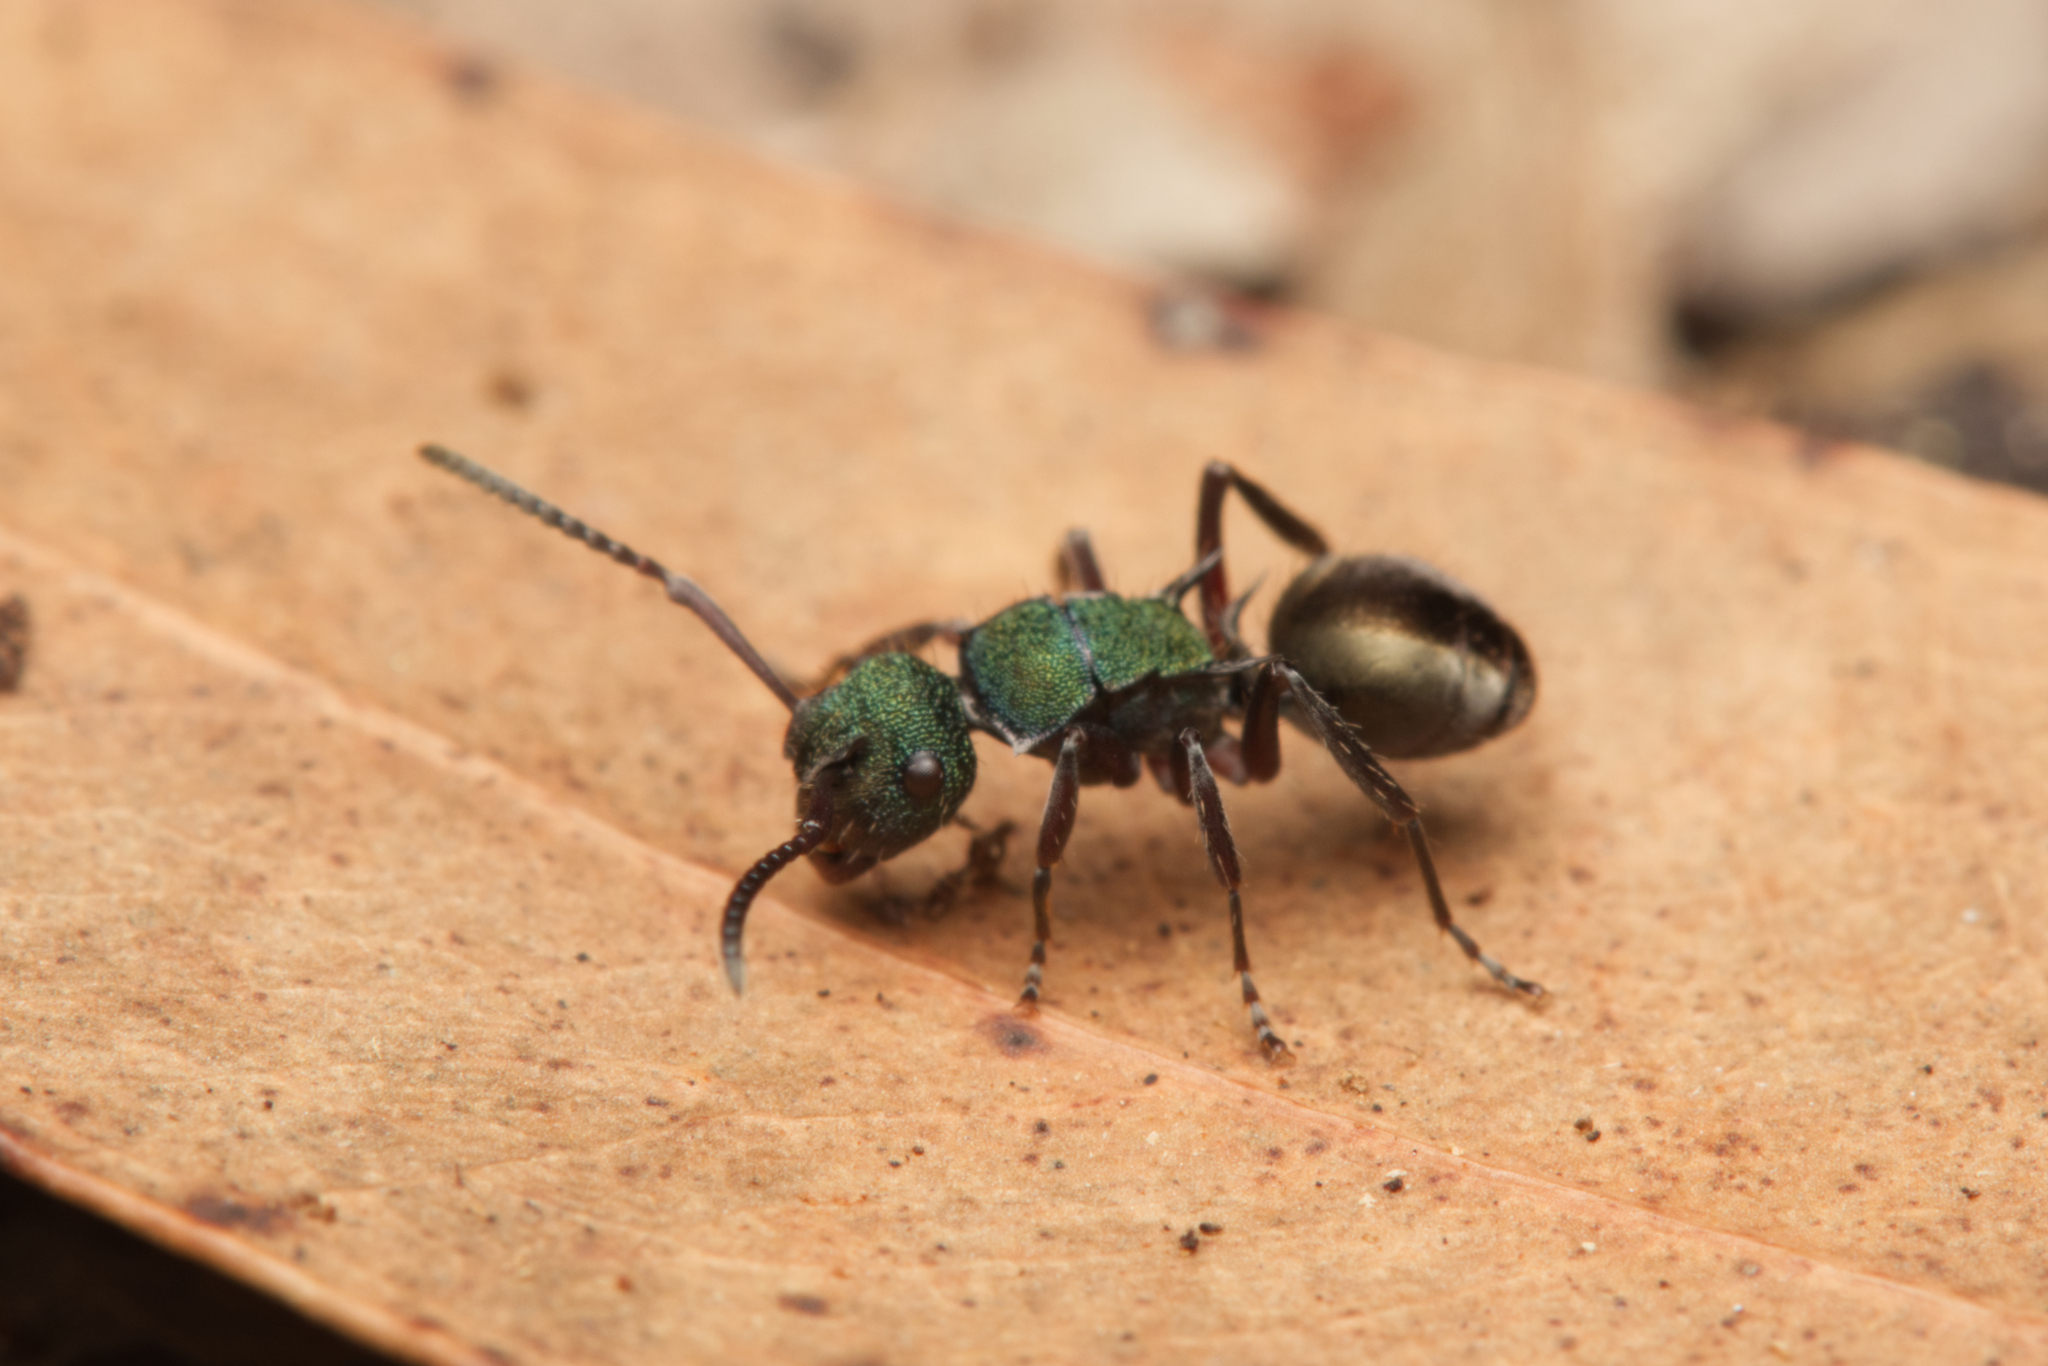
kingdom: Animalia
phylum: Arthropoda
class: Insecta
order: Hymenoptera
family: Formicidae
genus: Polyrhachis
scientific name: Polyrhachis hookeri
